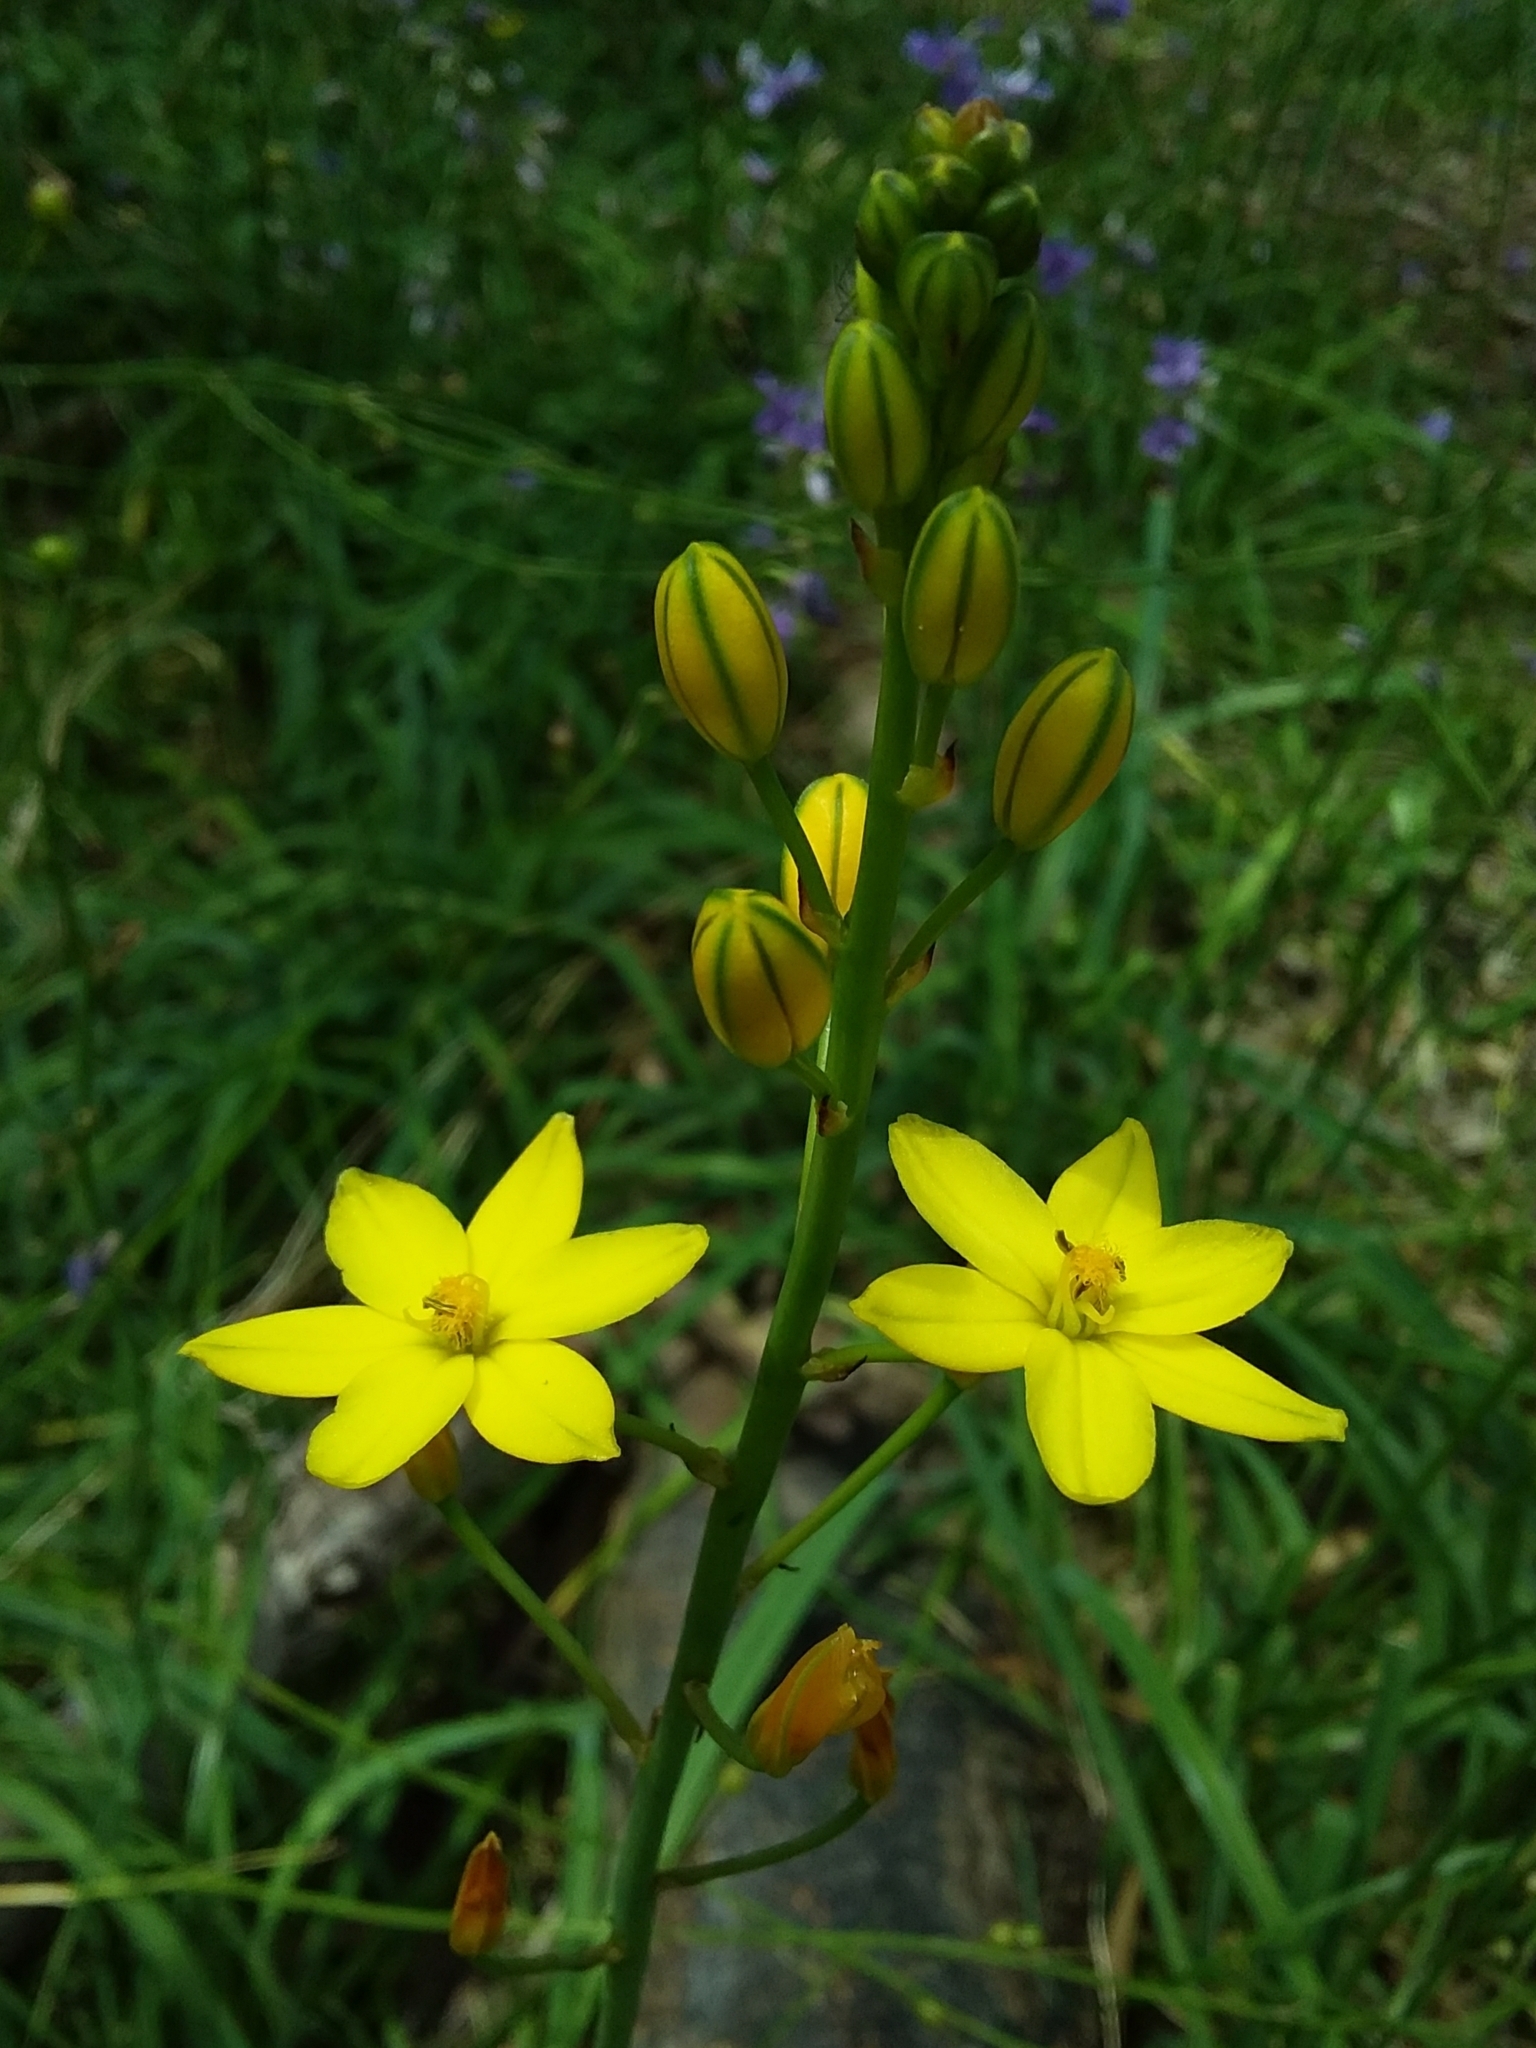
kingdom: Plantae
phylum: Tracheophyta
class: Liliopsida
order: Asparagales
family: Asphodelaceae
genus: Bulbine
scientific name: Bulbine bulbosa
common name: Golden-lily
